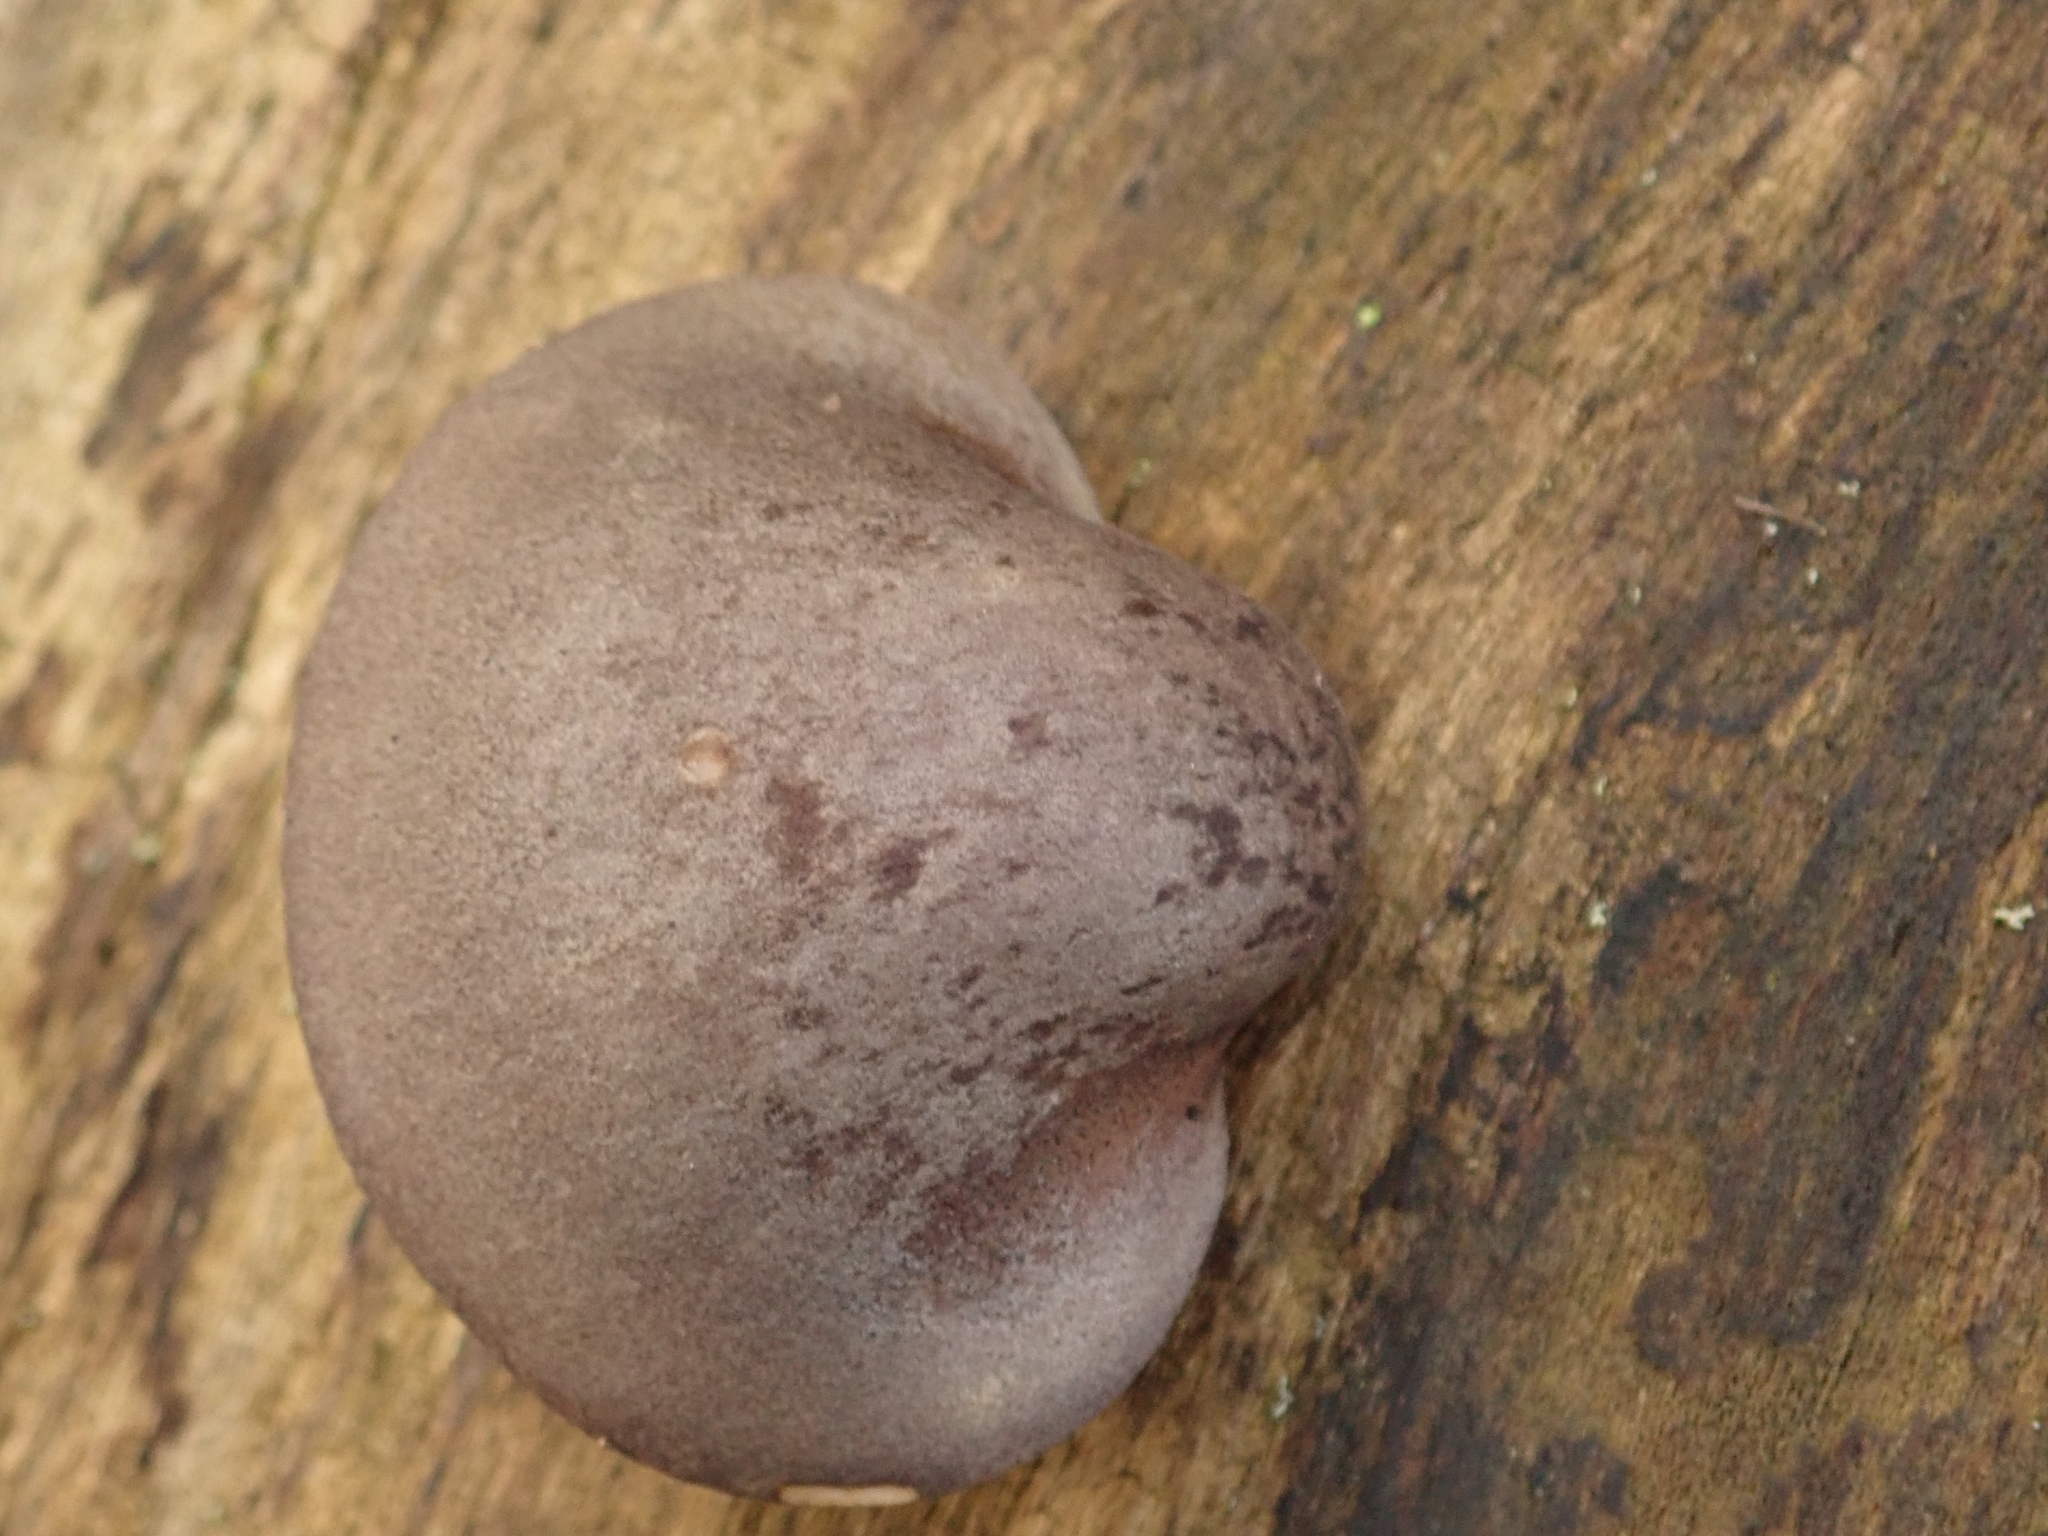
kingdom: Fungi
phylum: Basidiomycota
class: Agaricomycetes
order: Agaricales
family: Sarcomyxaceae
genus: Sarcomyxa
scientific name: Sarcomyxa serotina
